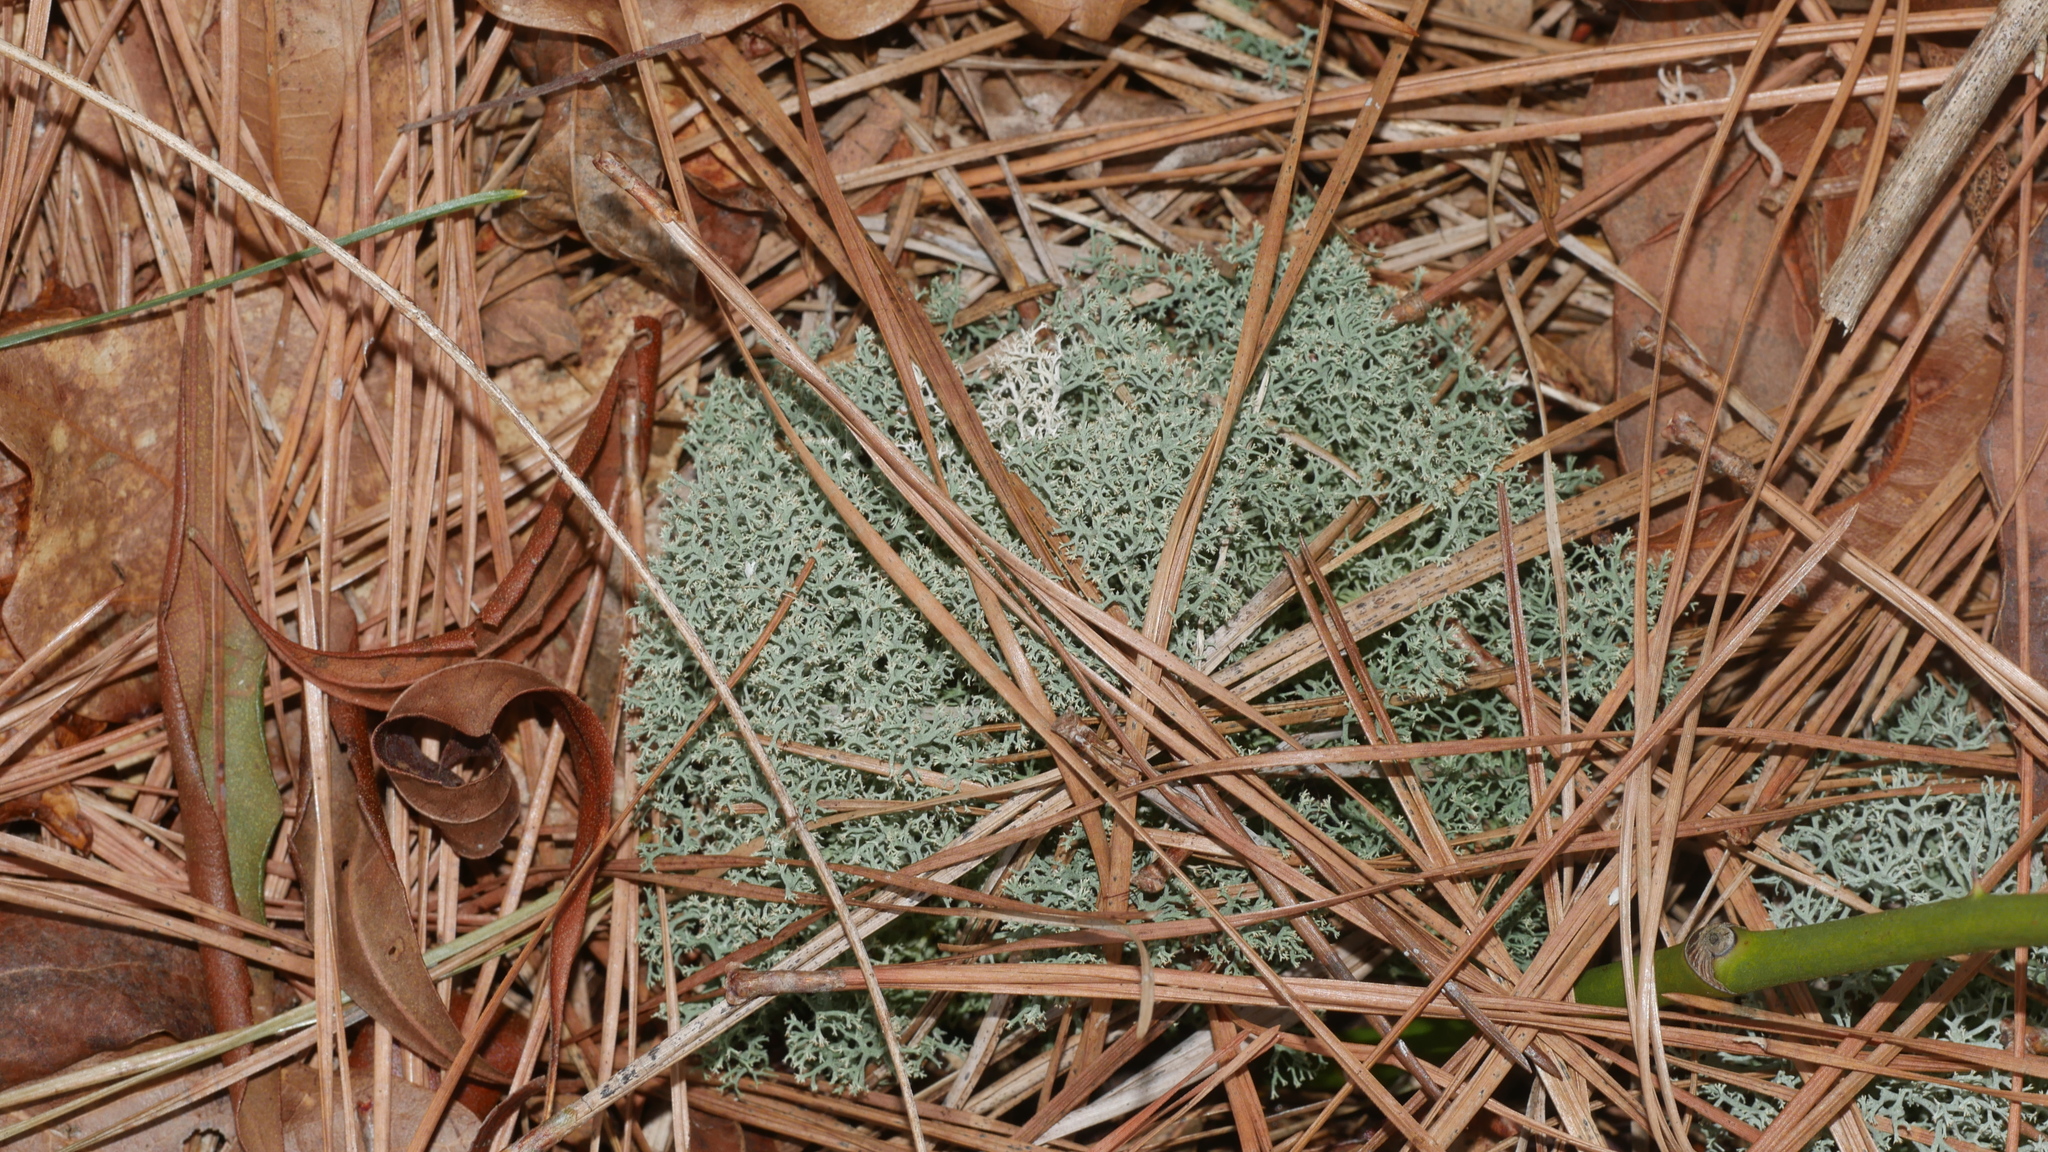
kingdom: Fungi
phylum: Ascomycota
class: Lecanoromycetes
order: Lecanorales
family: Cladoniaceae
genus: Cladonia
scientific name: Cladonia subtenuis
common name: Dixie reindeer lichen
